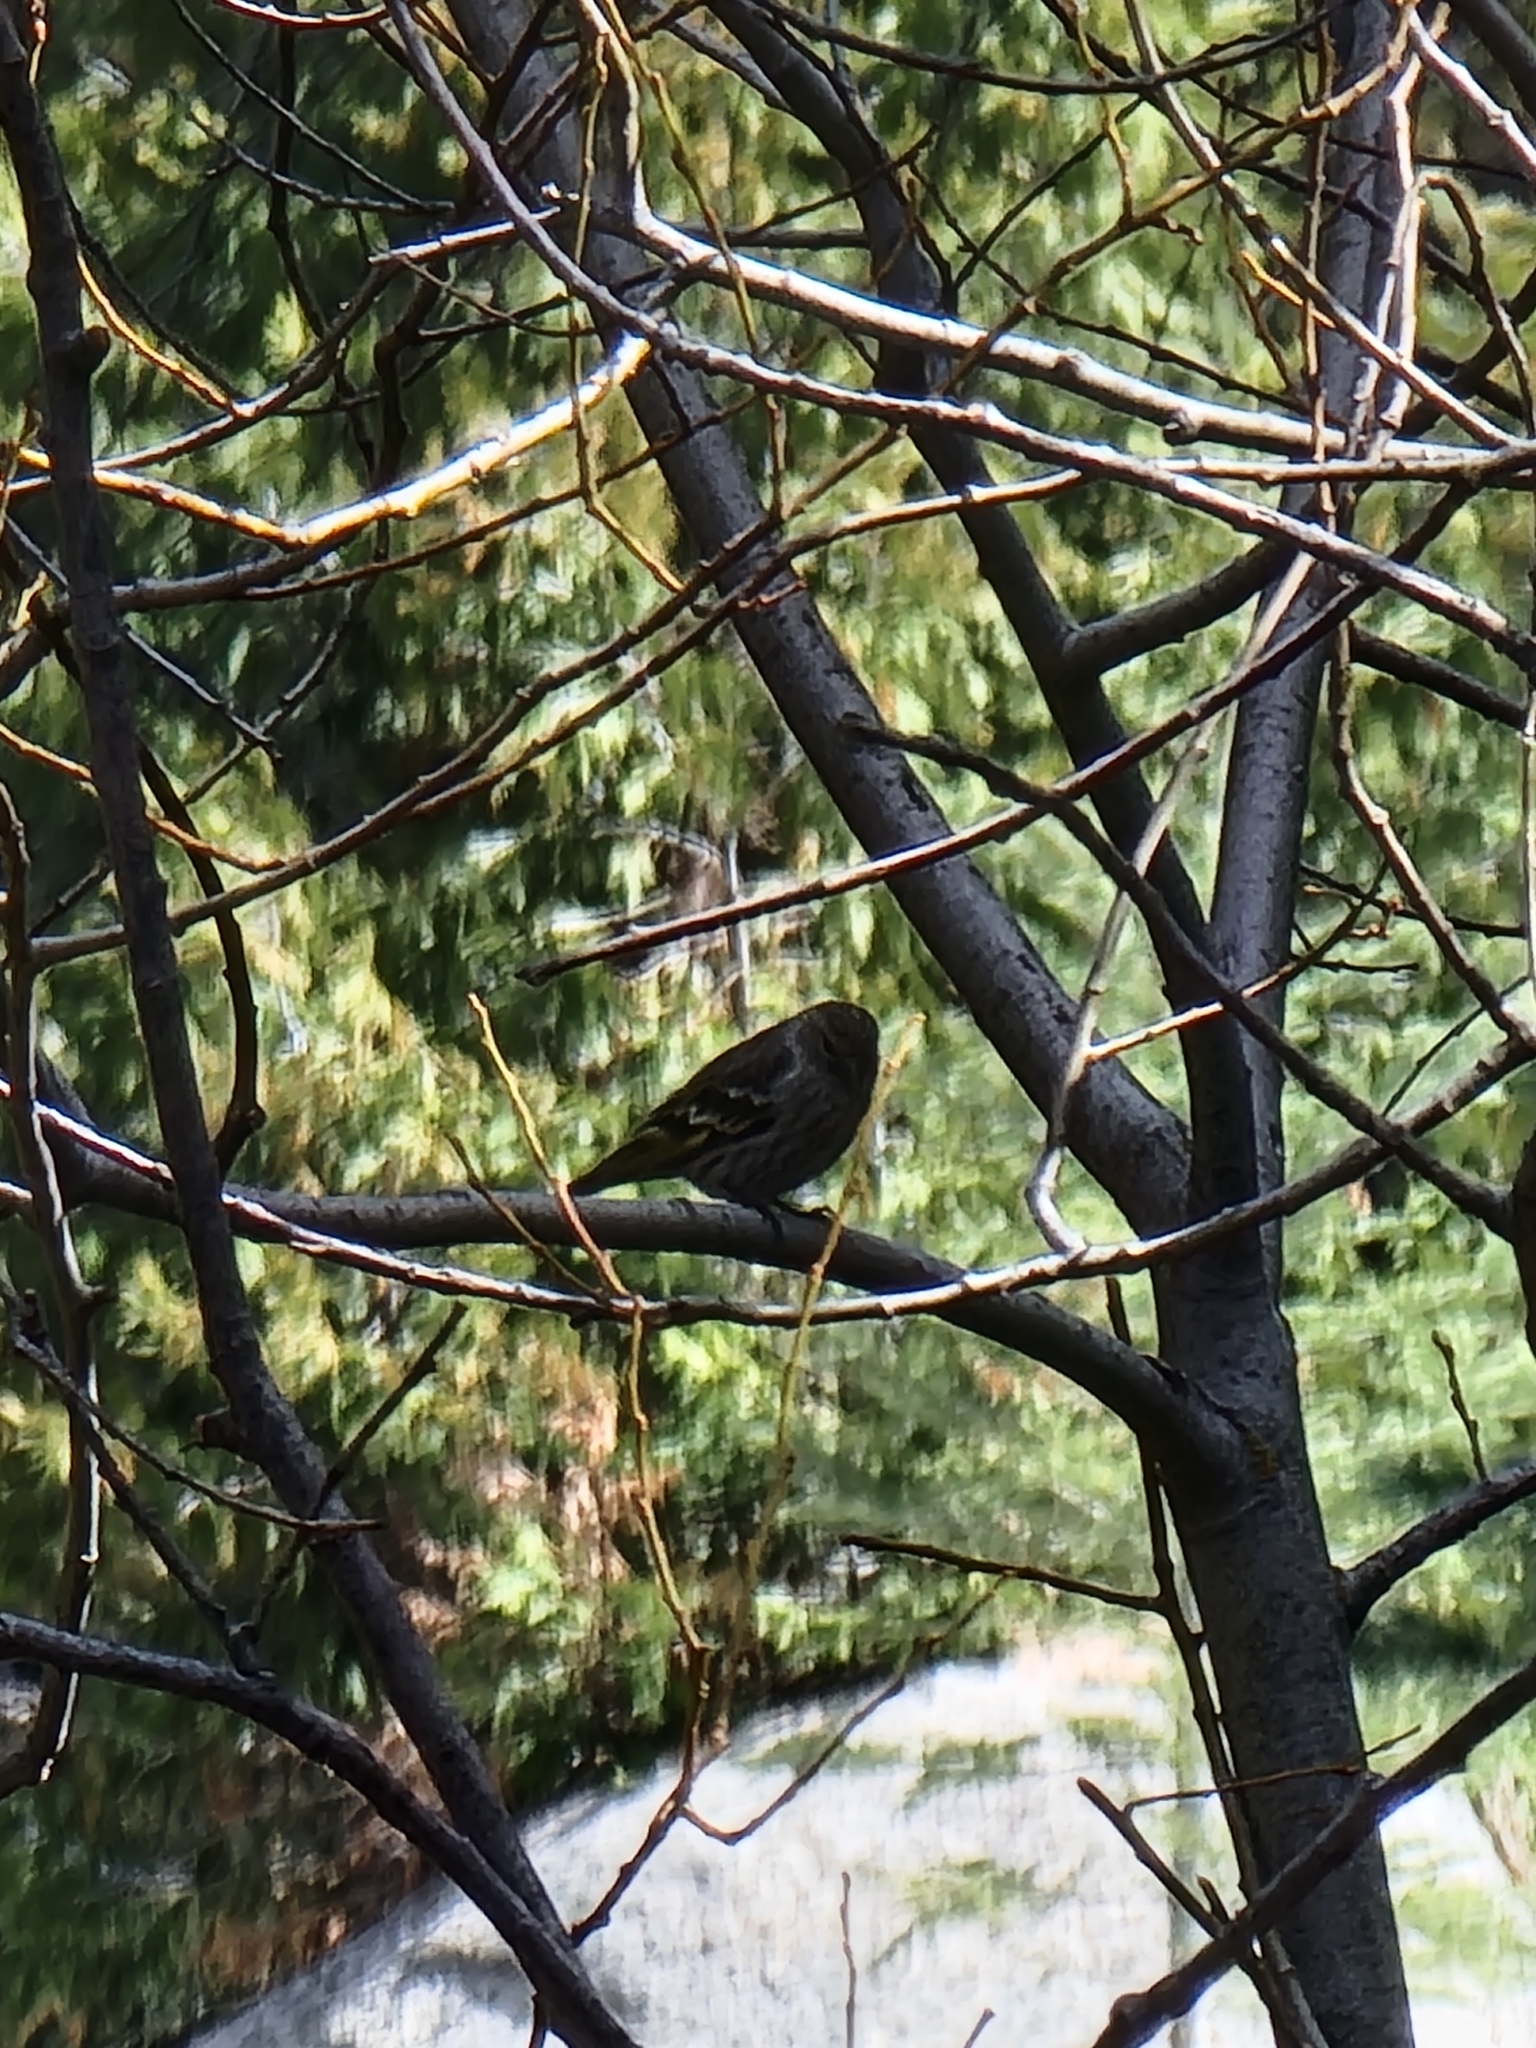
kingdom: Animalia
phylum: Chordata
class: Aves
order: Passeriformes
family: Fringillidae
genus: Spinus
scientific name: Spinus pinus
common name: Pine siskin
